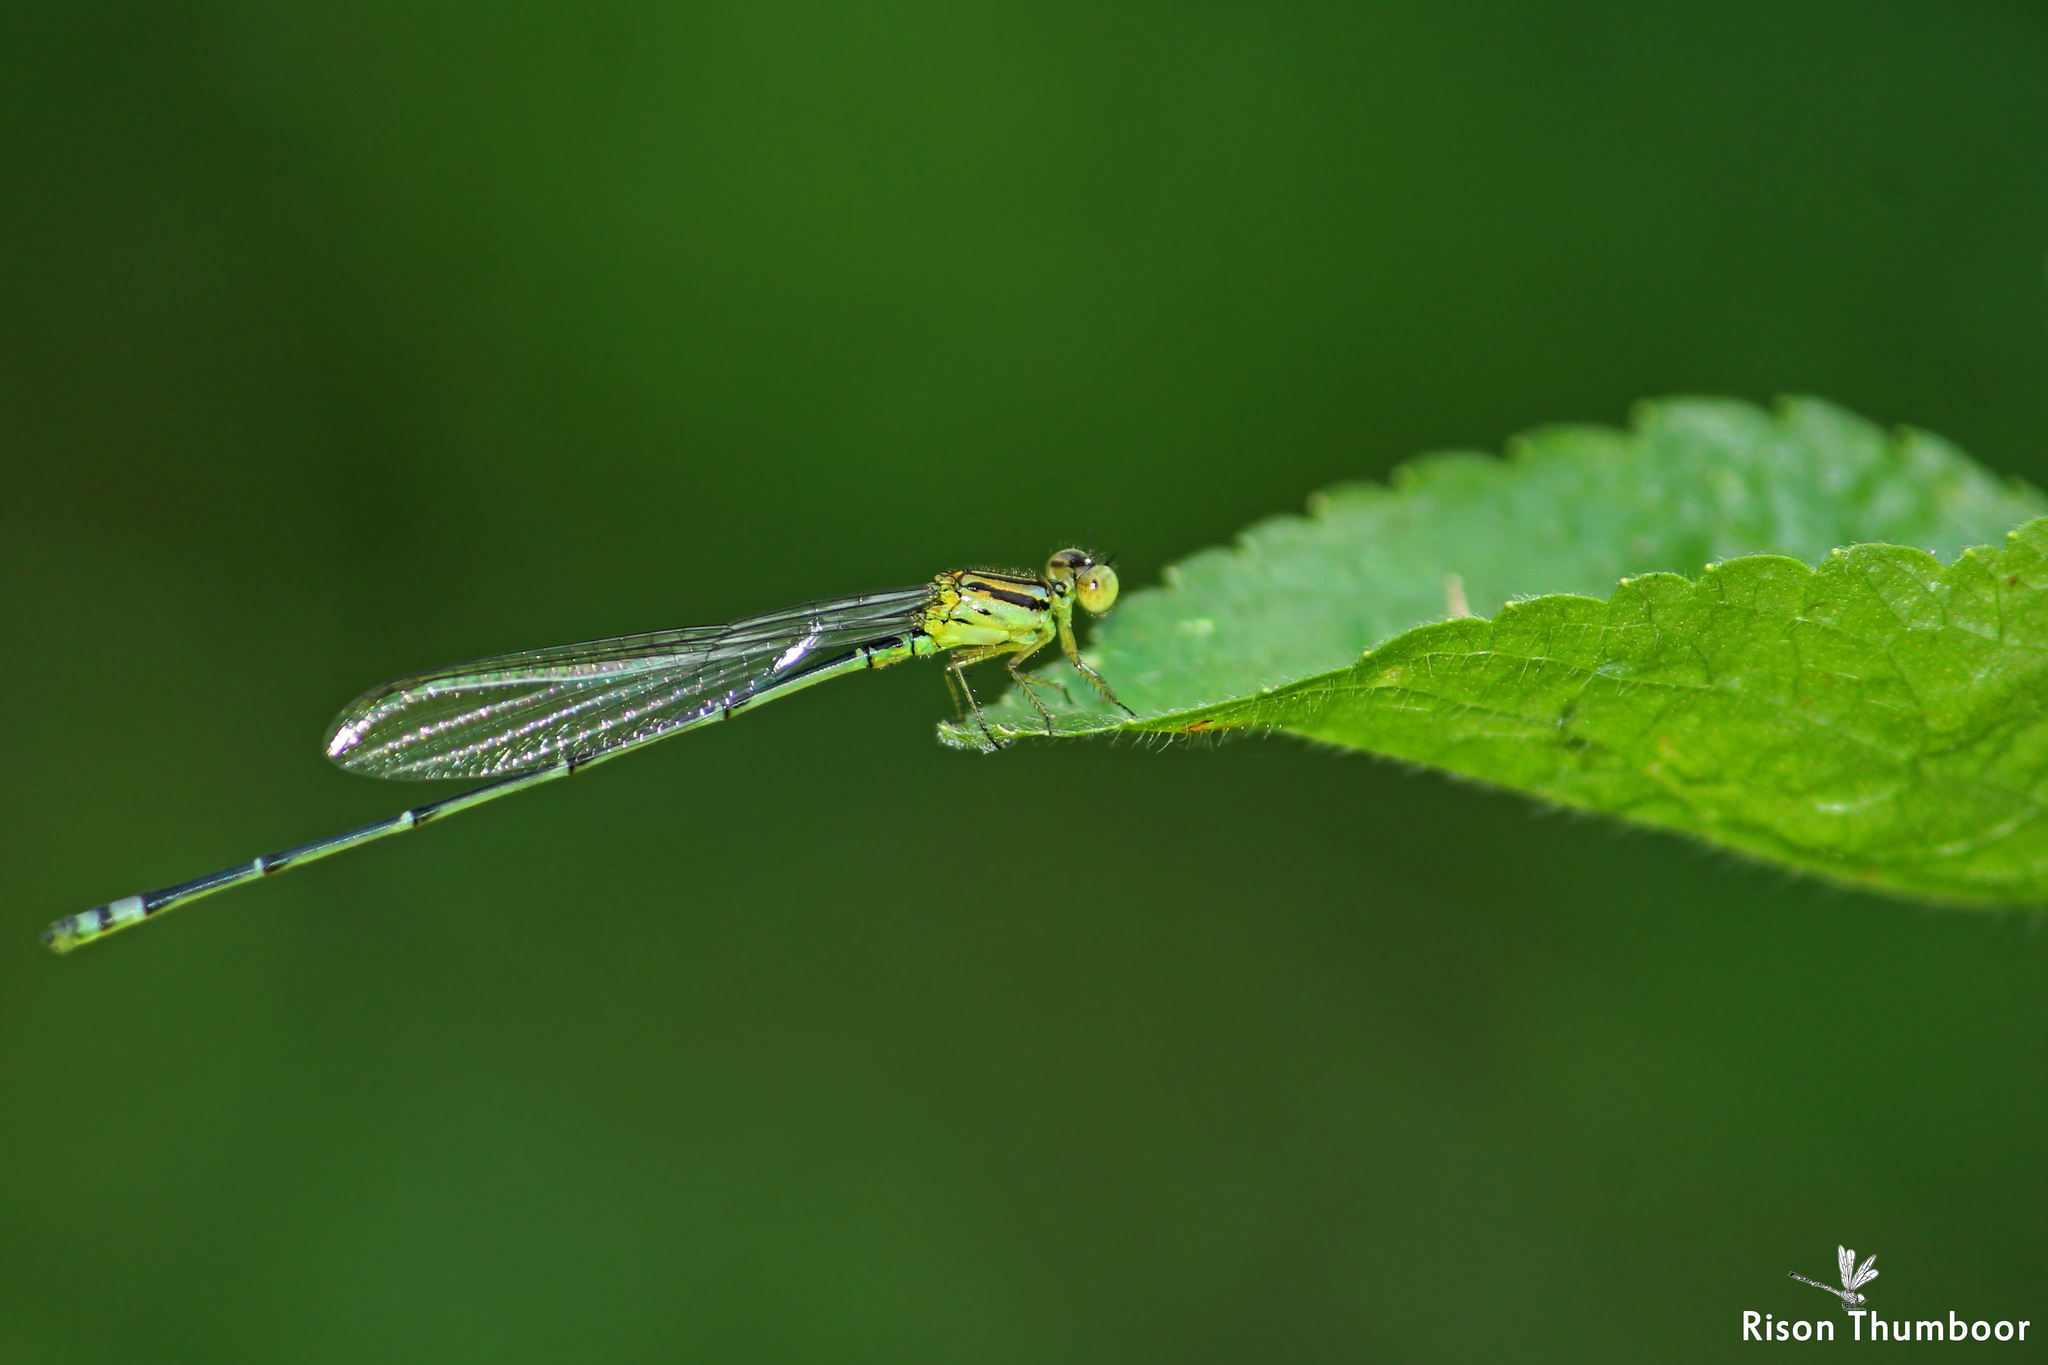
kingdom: Animalia
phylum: Arthropoda
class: Insecta
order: Odonata
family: Coenagrionidae
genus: Pseudagrion
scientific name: Pseudagrion indicum
